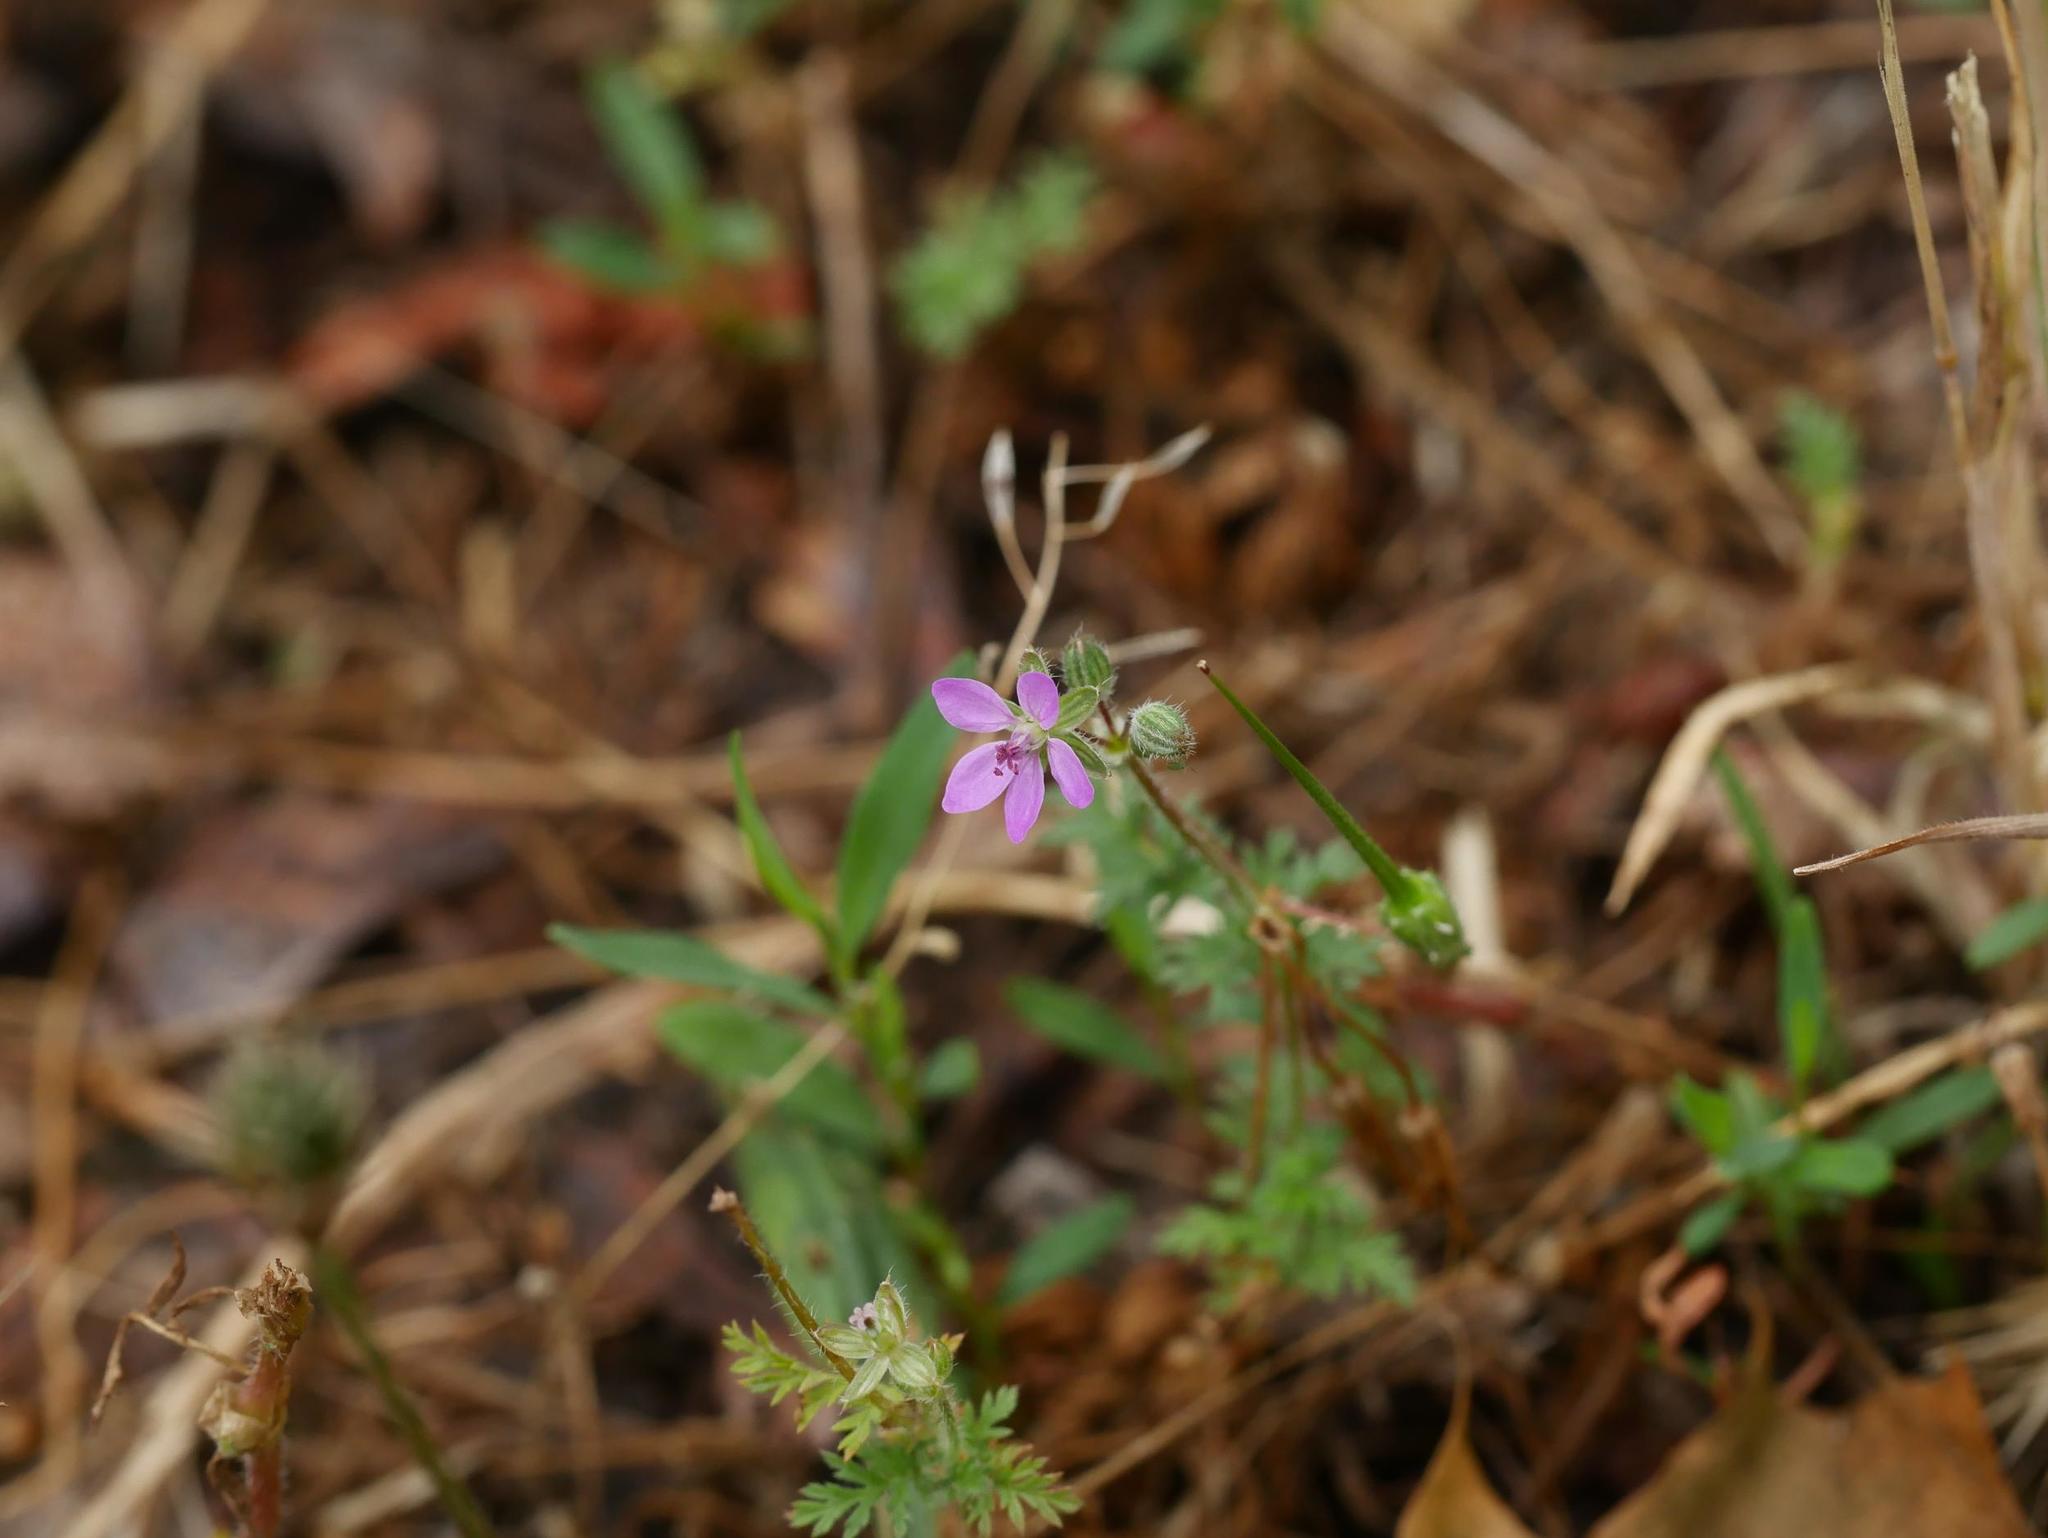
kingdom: Plantae
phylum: Tracheophyta
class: Magnoliopsida
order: Geraniales
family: Geraniaceae
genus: Erodium
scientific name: Erodium cicutarium
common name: Common stork's-bill
